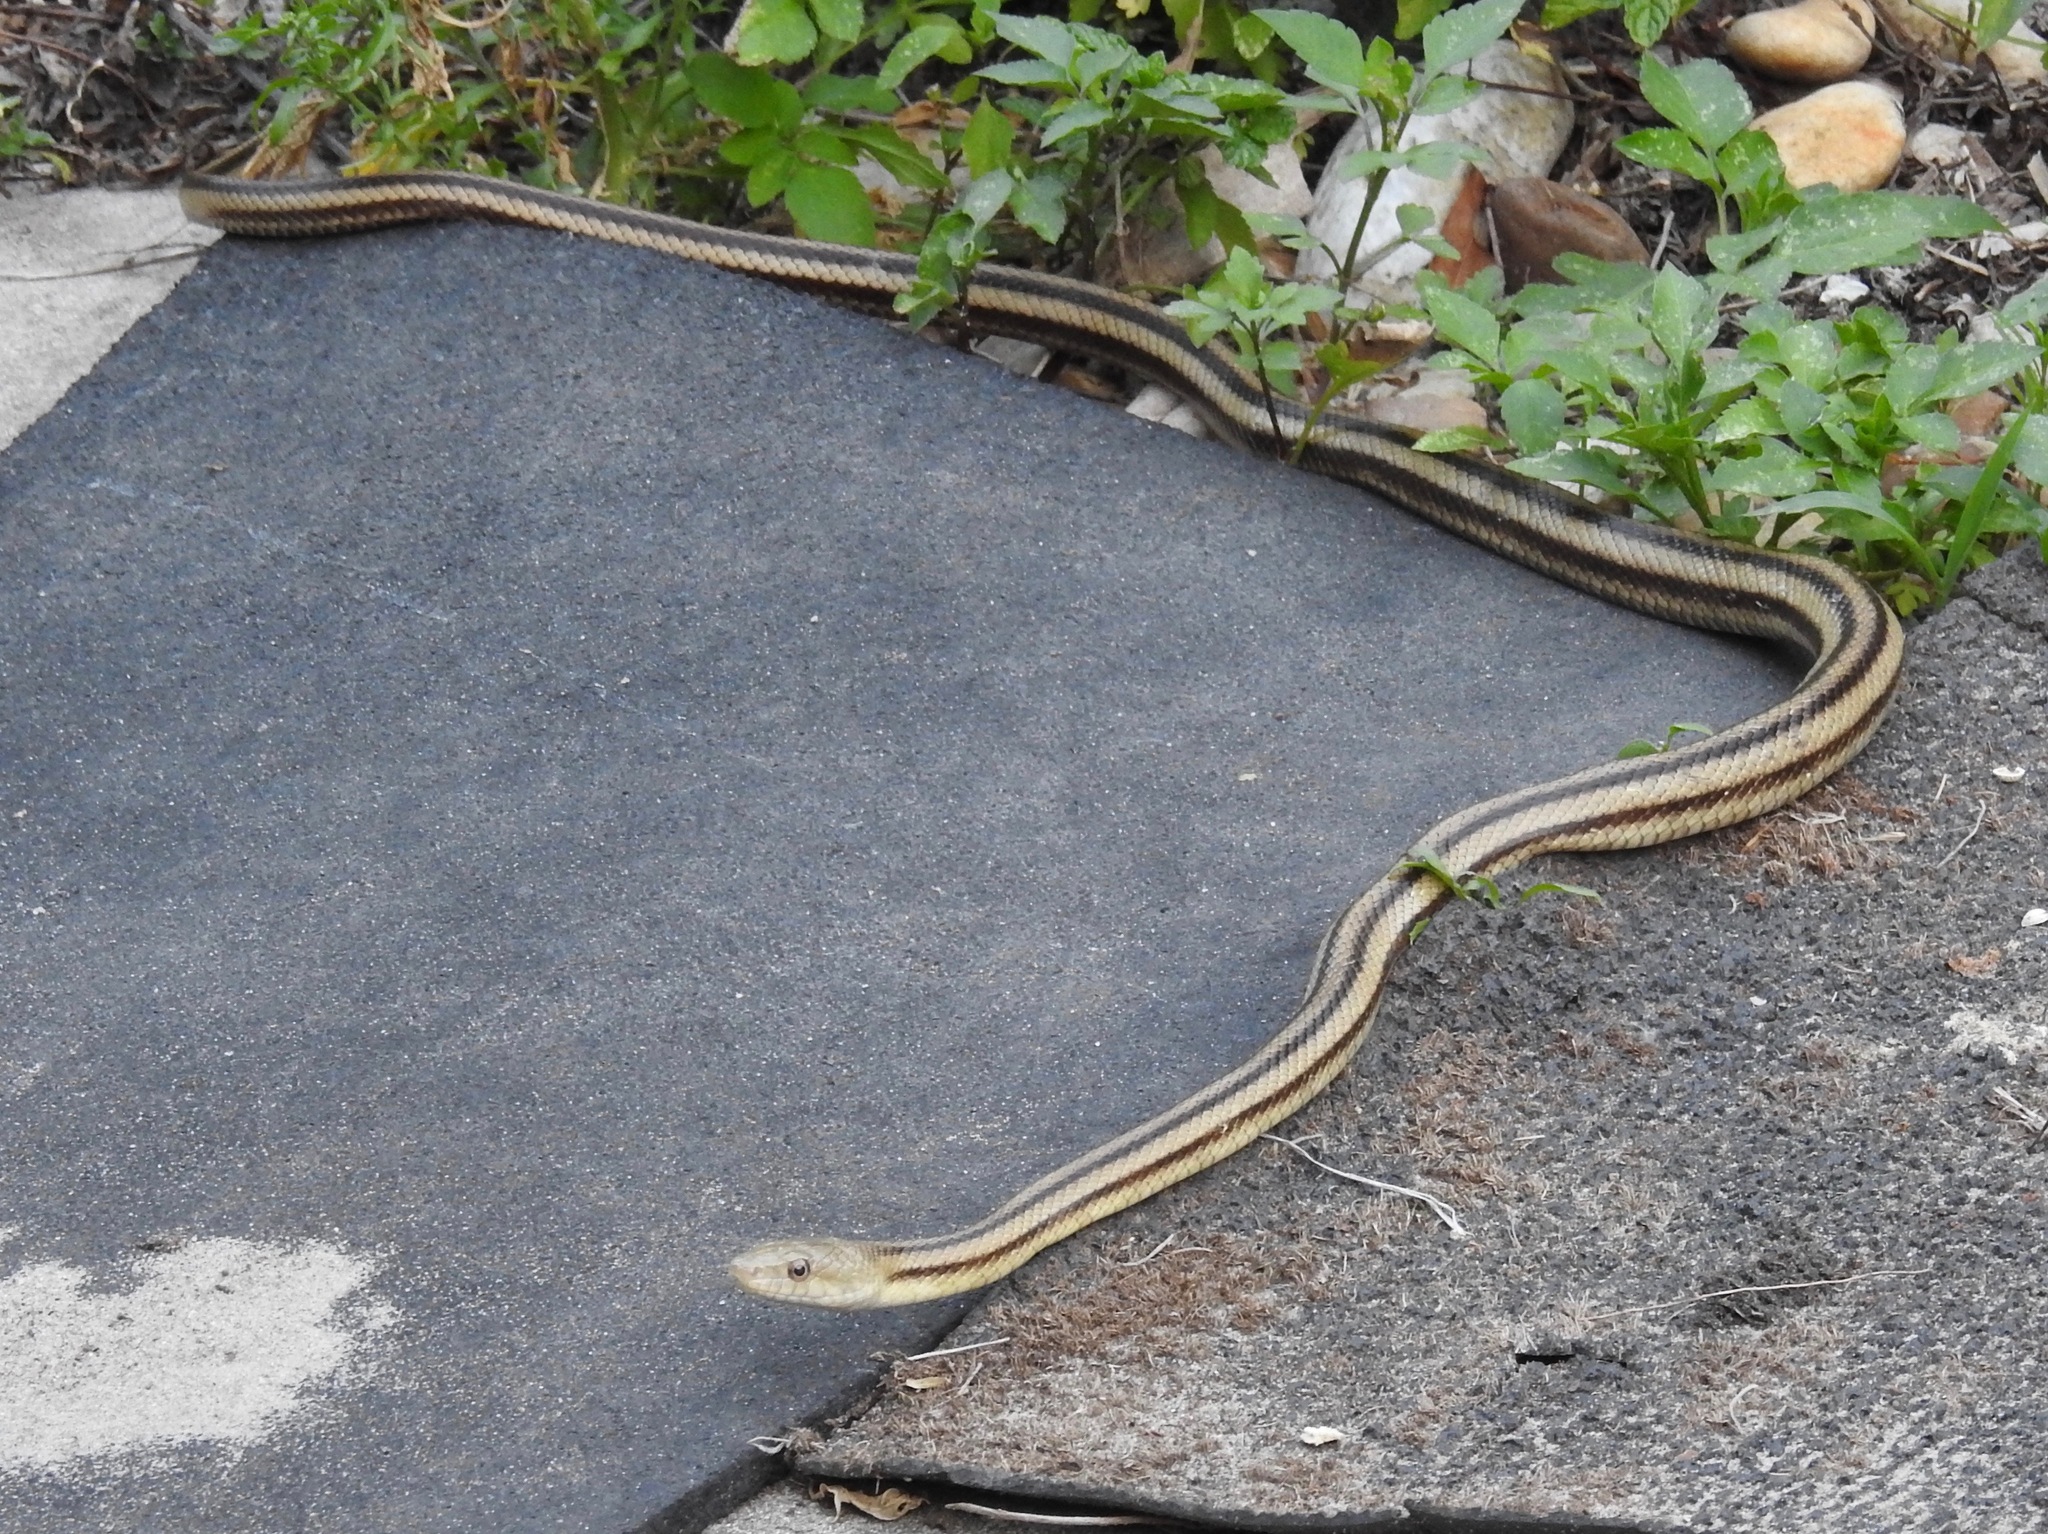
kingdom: Animalia
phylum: Chordata
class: Squamata
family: Colubridae
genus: Pantherophis
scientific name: Pantherophis alleghaniensis
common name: Eastern rat snake
